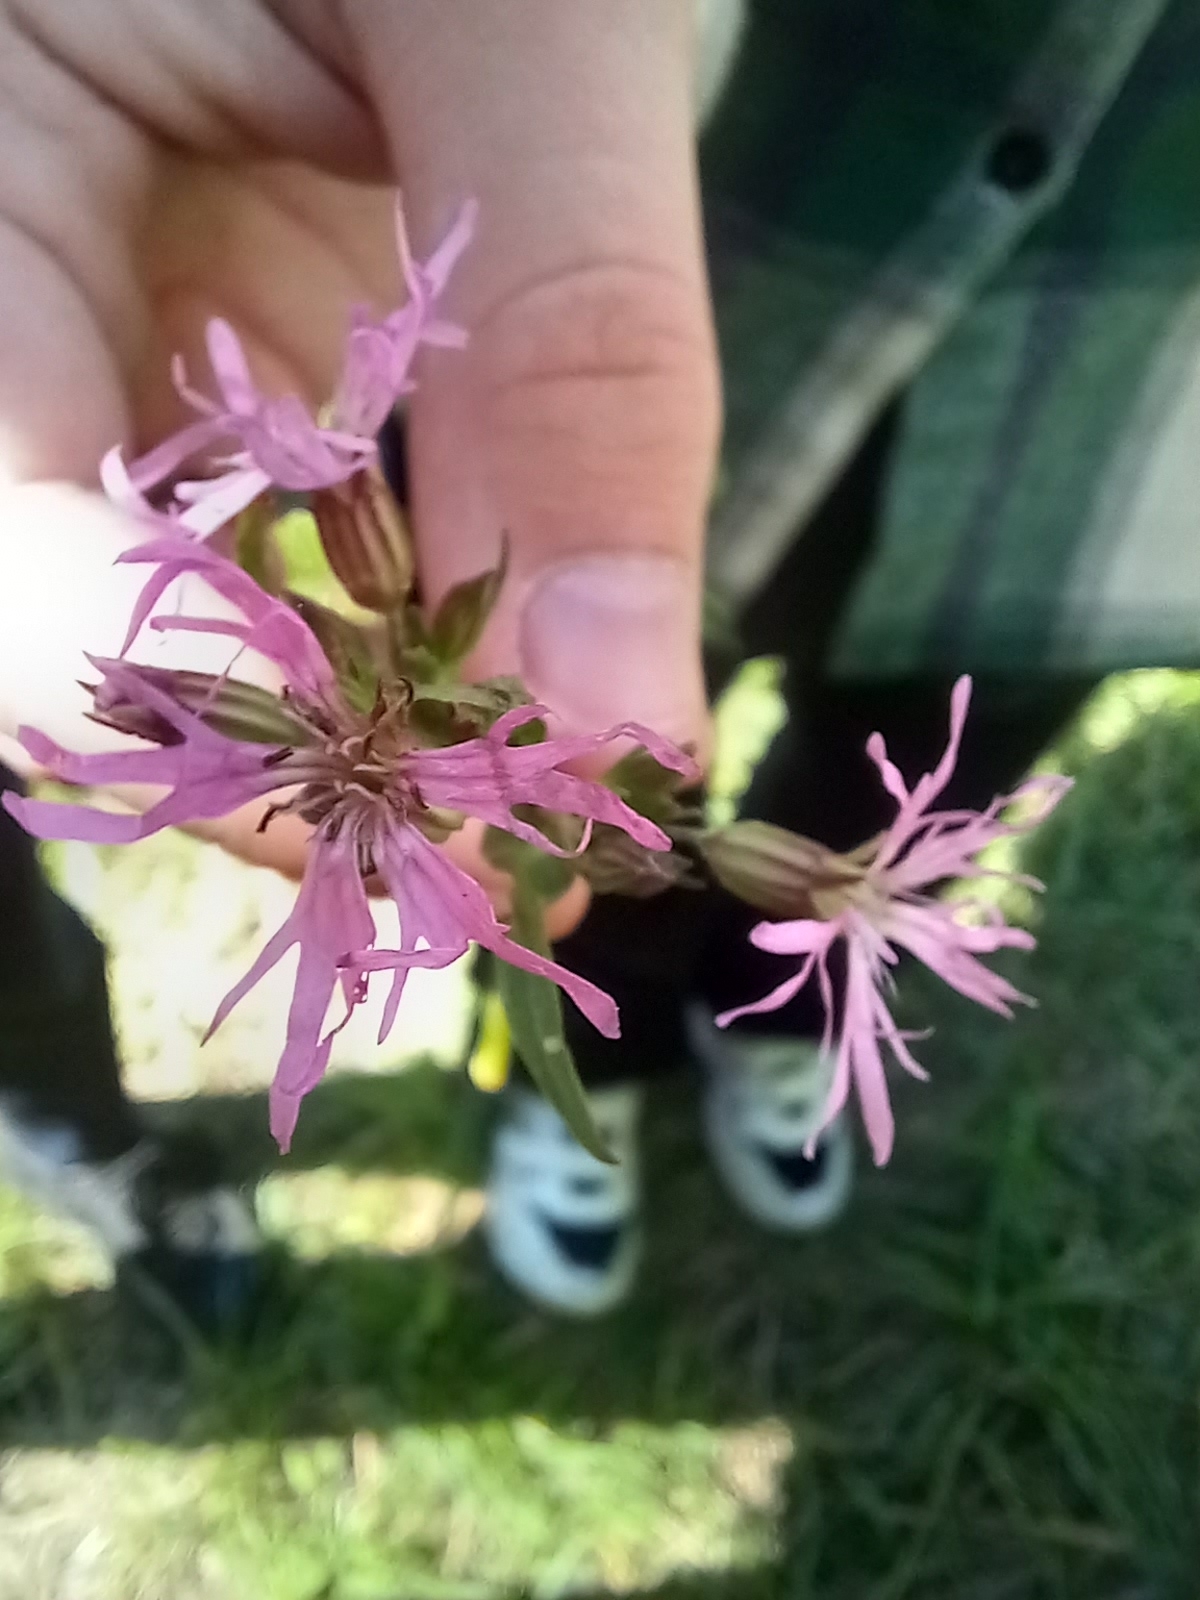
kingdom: Plantae
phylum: Tracheophyta
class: Magnoliopsida
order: Caryophyllales
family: Caryophyllaceae
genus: Silene
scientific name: Silene flos-cuculi
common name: Ragged-robin
